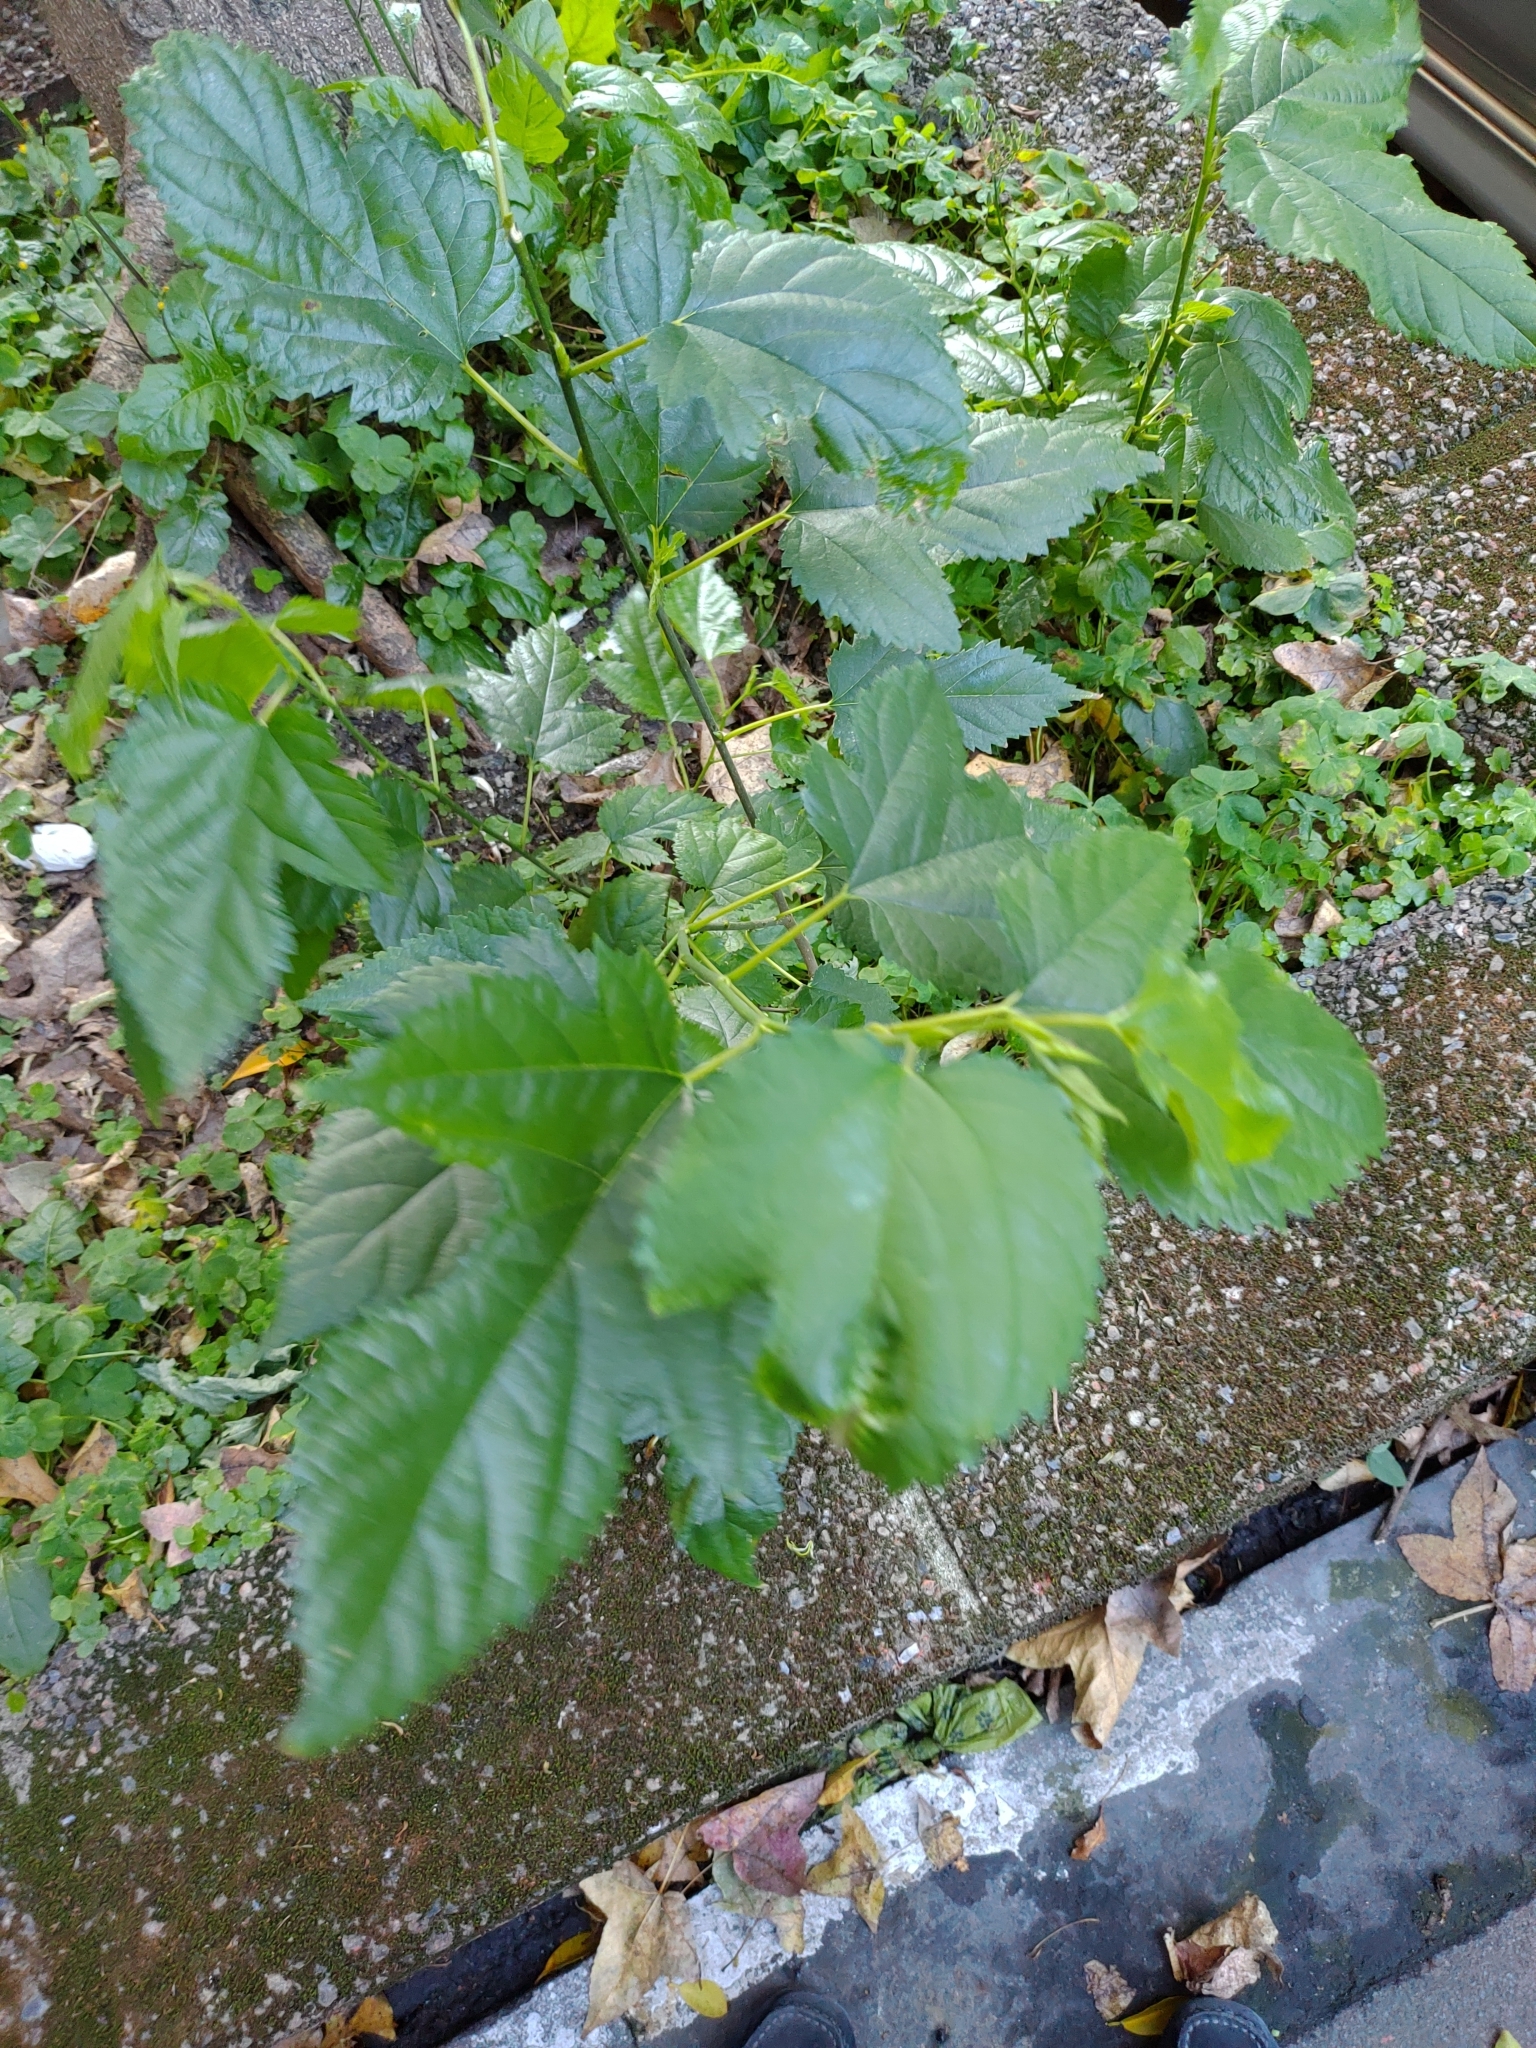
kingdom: Plantae
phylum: Tracheophyta
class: Magnoliopsida
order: Rosales
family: Moraceae
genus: Morus
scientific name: Morus indica
